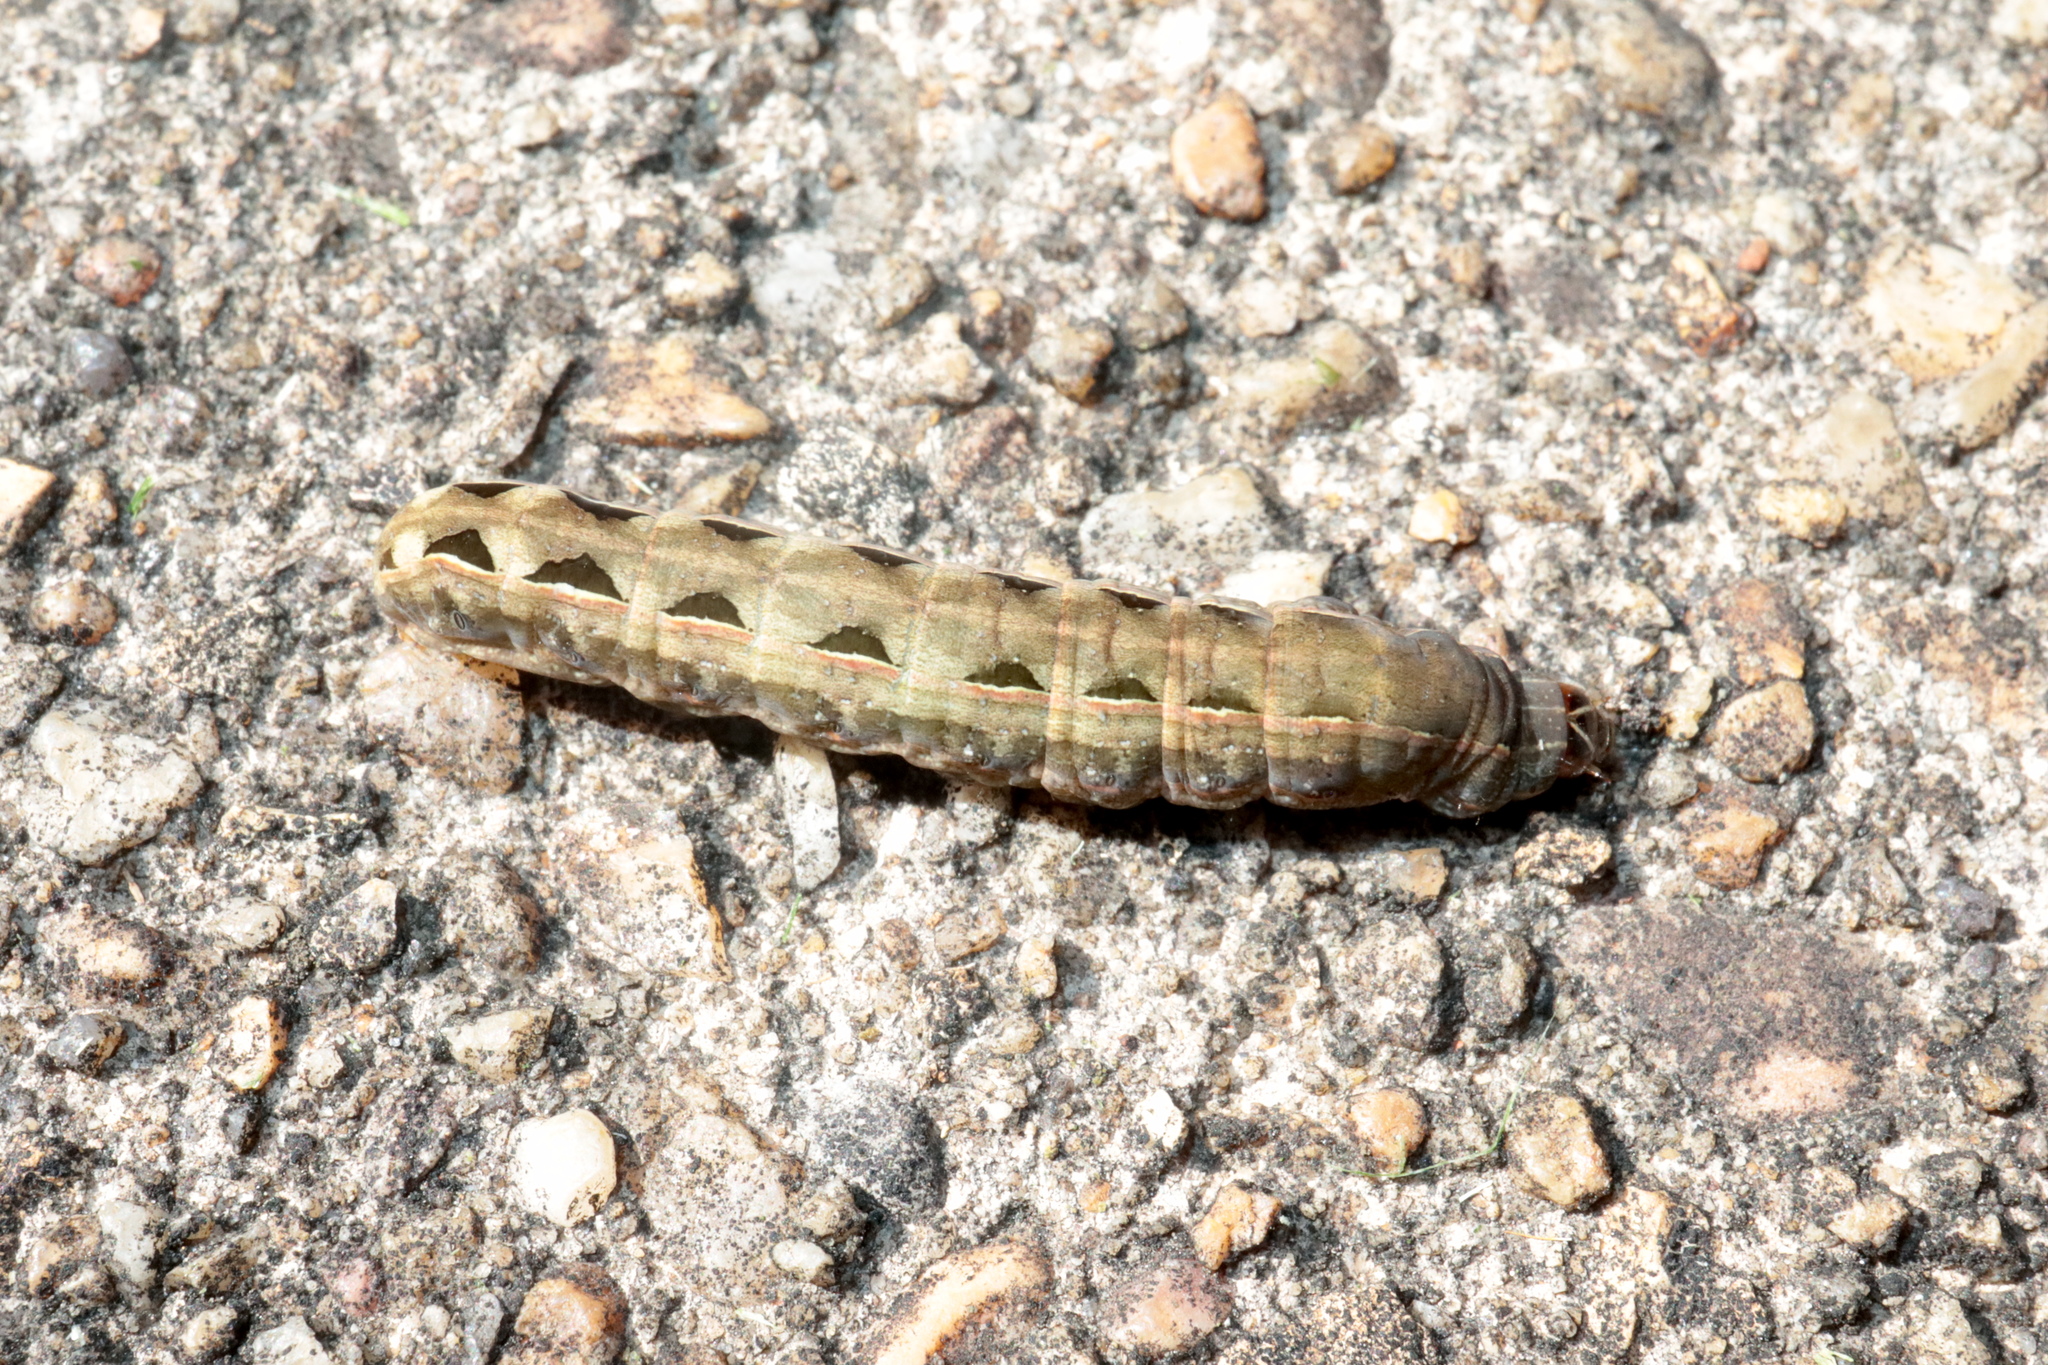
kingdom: Animalia
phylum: Arthropoda
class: Insecta
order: Lepidoptera
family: Noctuidae
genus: Spodoptera
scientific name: Spodoptera ornithogalli
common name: Yellow-striped armyworm
